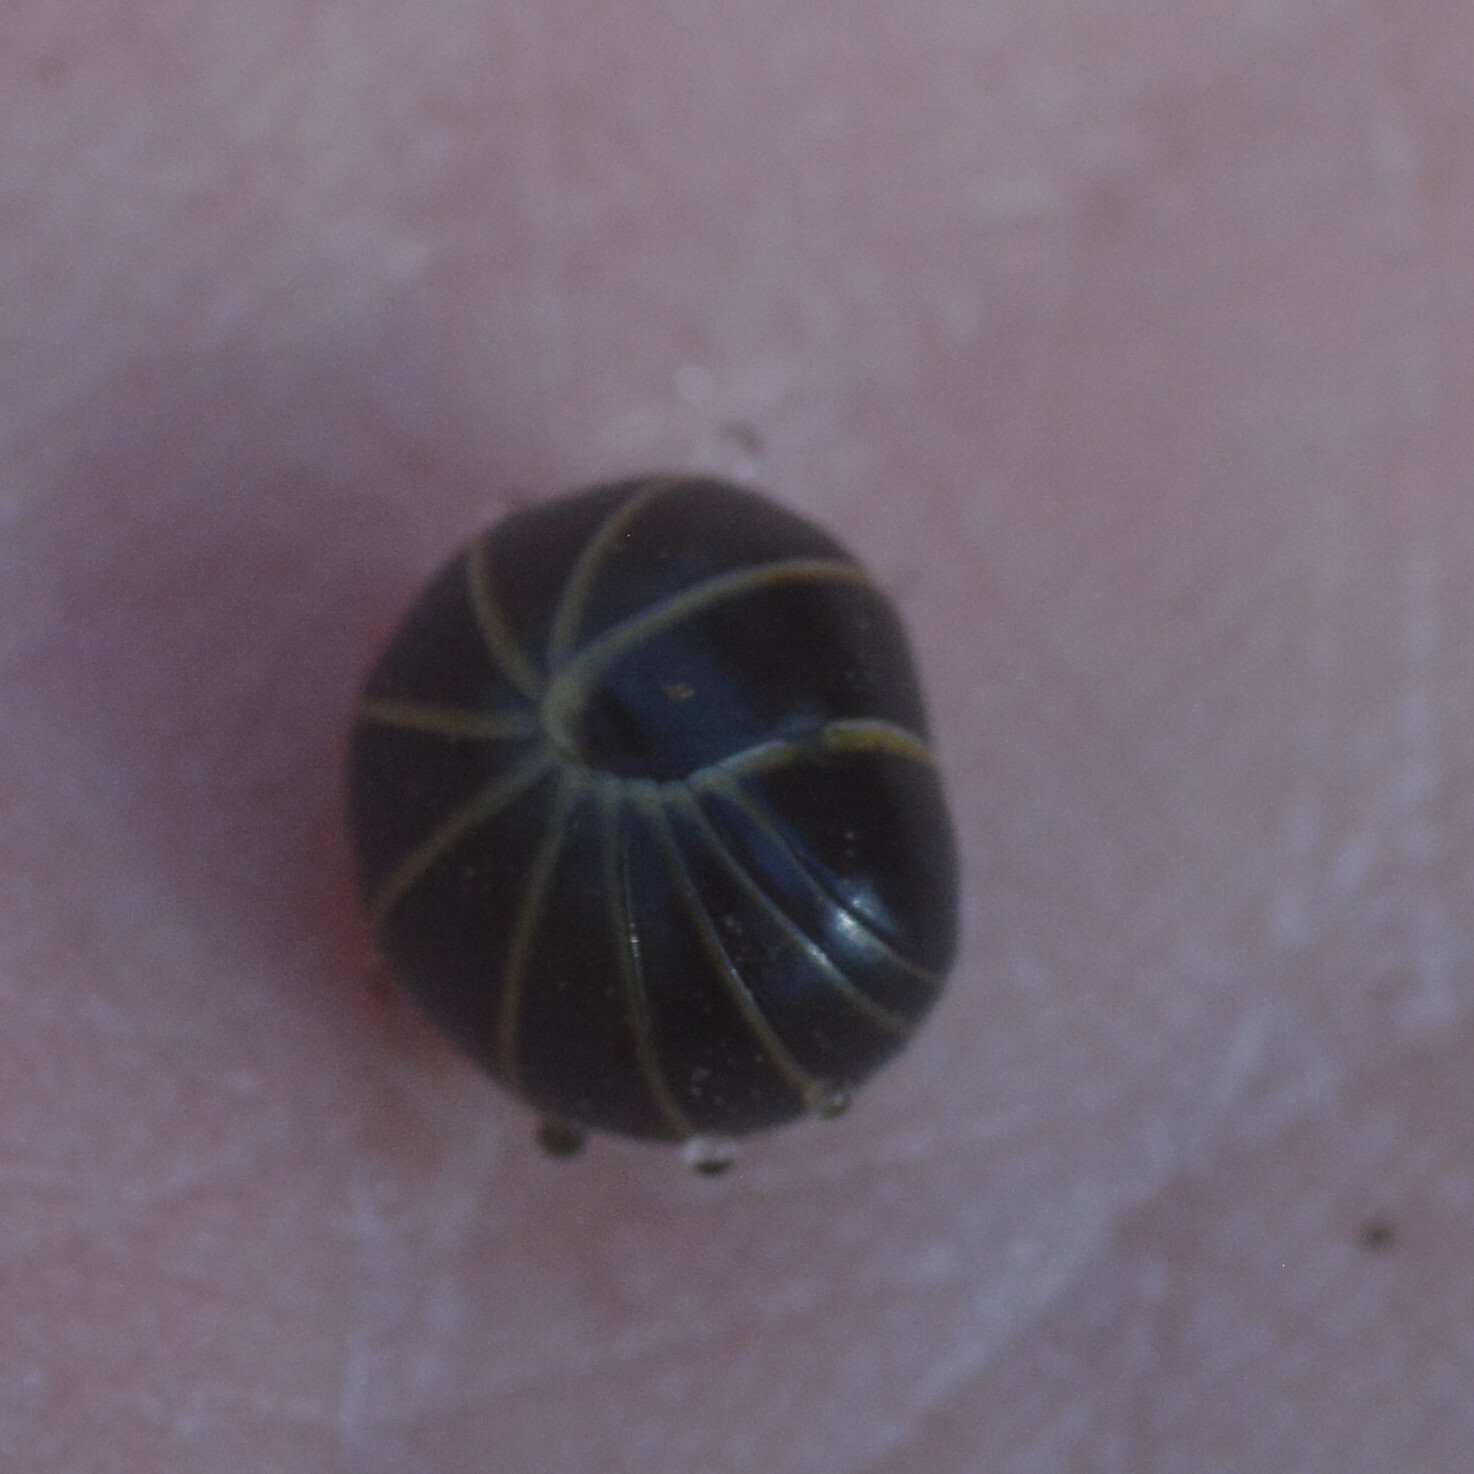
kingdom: Animalia
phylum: Arthropoda
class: Diplopoda
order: Glomerida
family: Glomeridae
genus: Glomeris
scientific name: Glomeris marginata
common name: Bordered pill millipede
